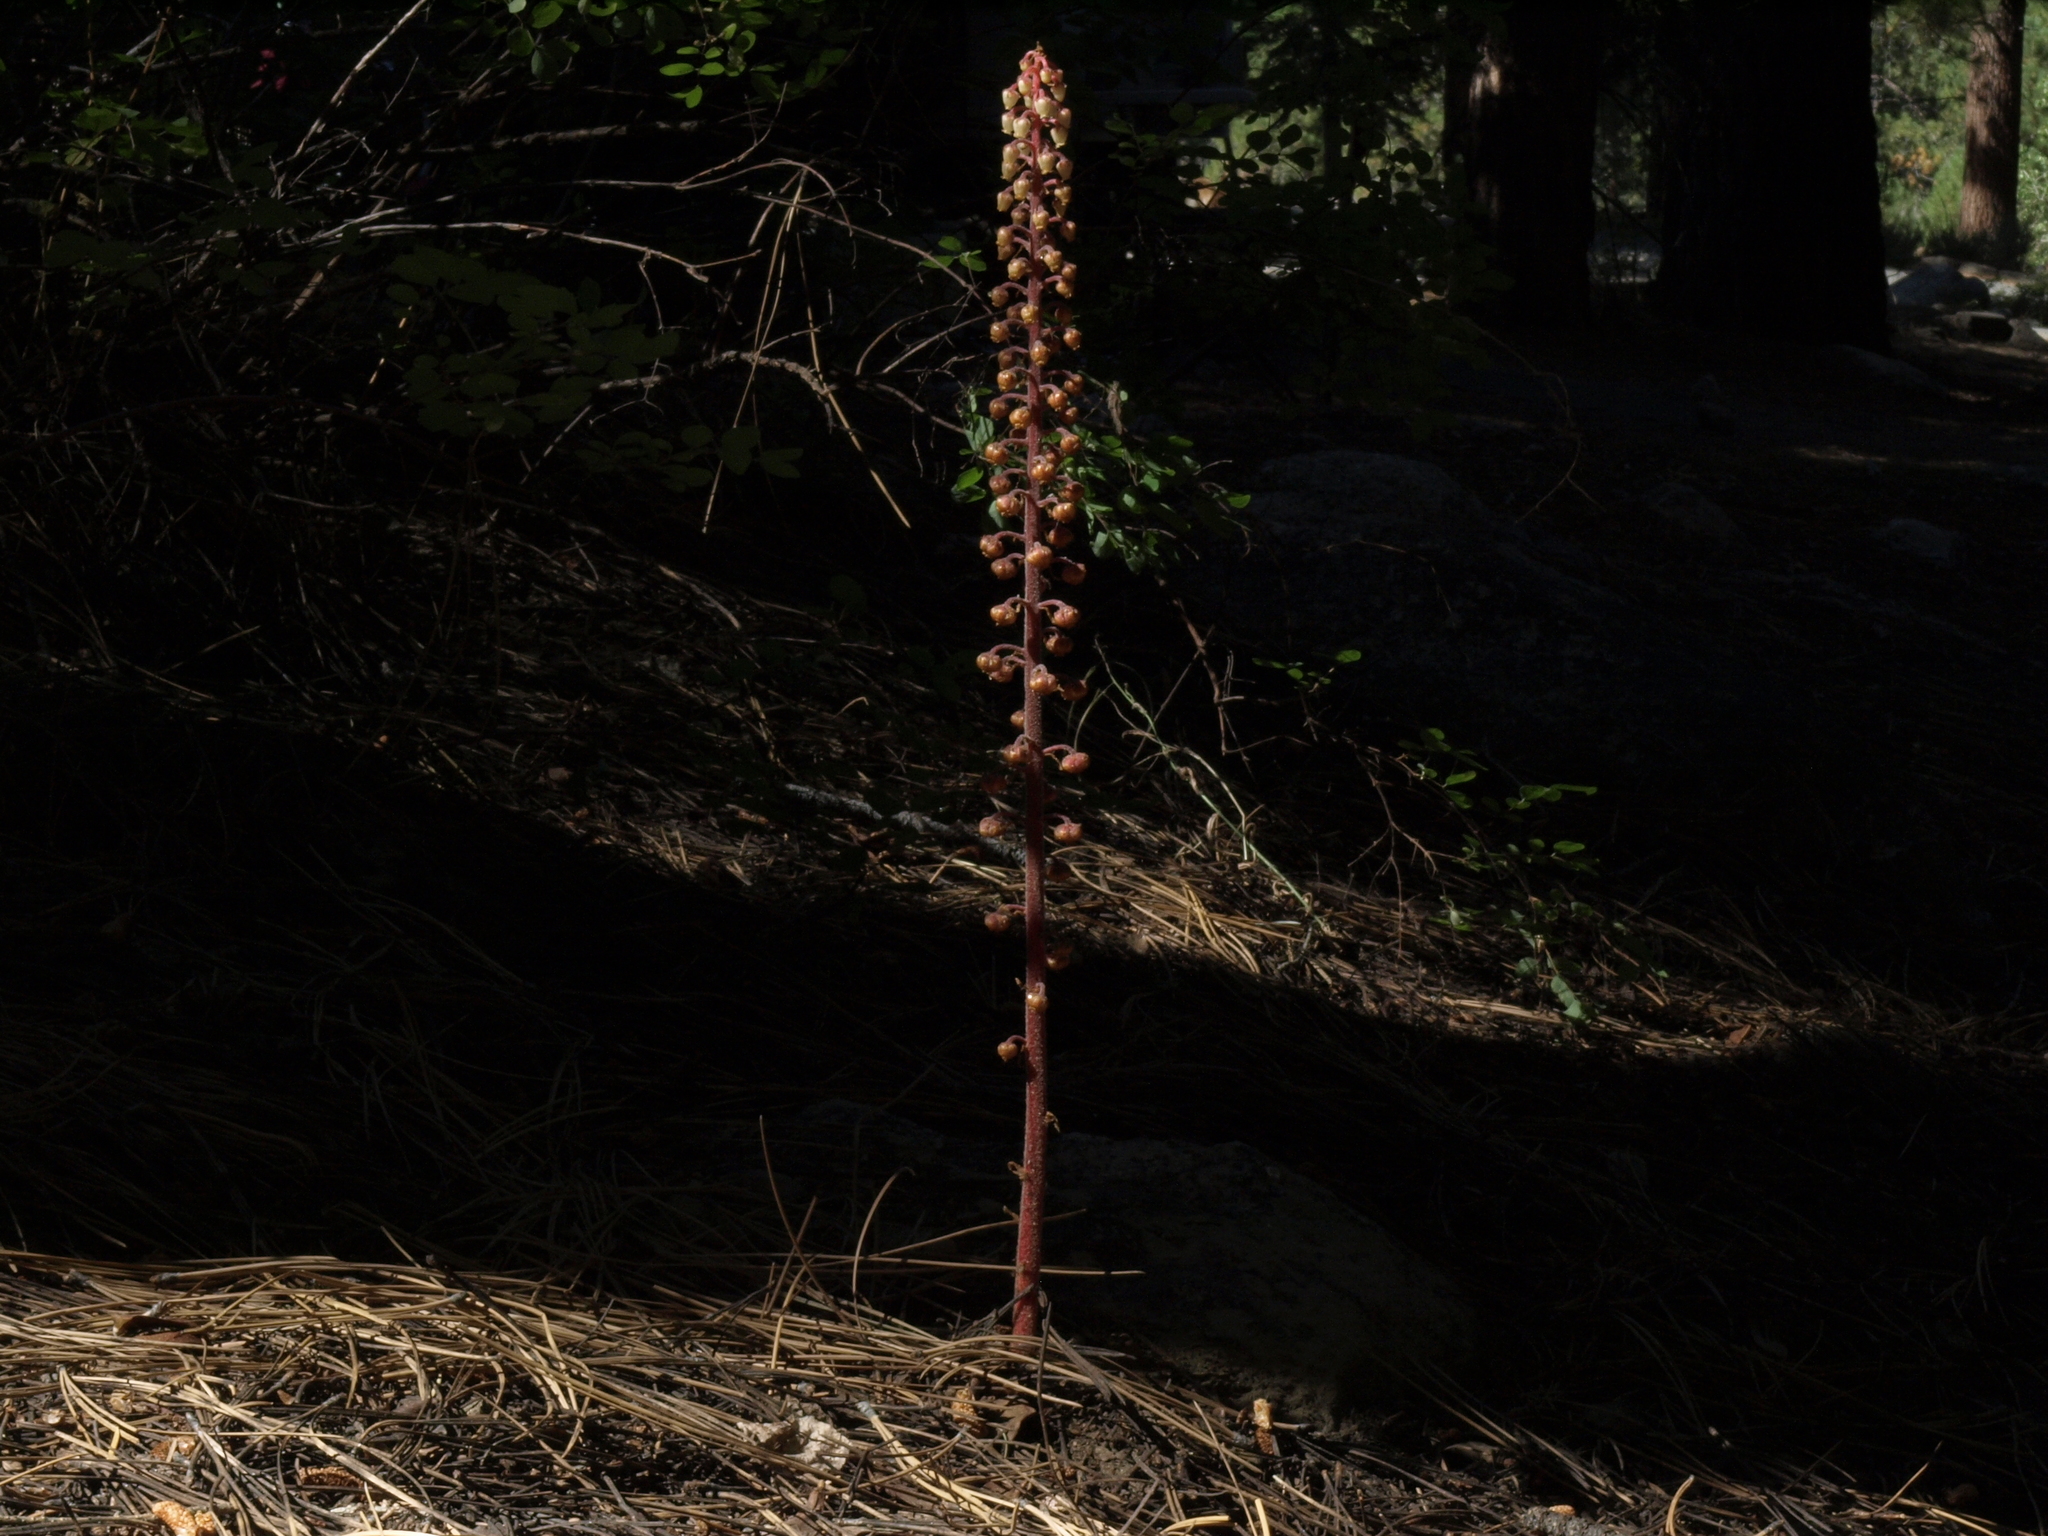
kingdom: Plantae
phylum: Tracheophyta
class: Magnoliopsida
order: Ericales
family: Ericaceae
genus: Pterospora
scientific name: Pterospora andromedea
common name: Giant bird's-nest
